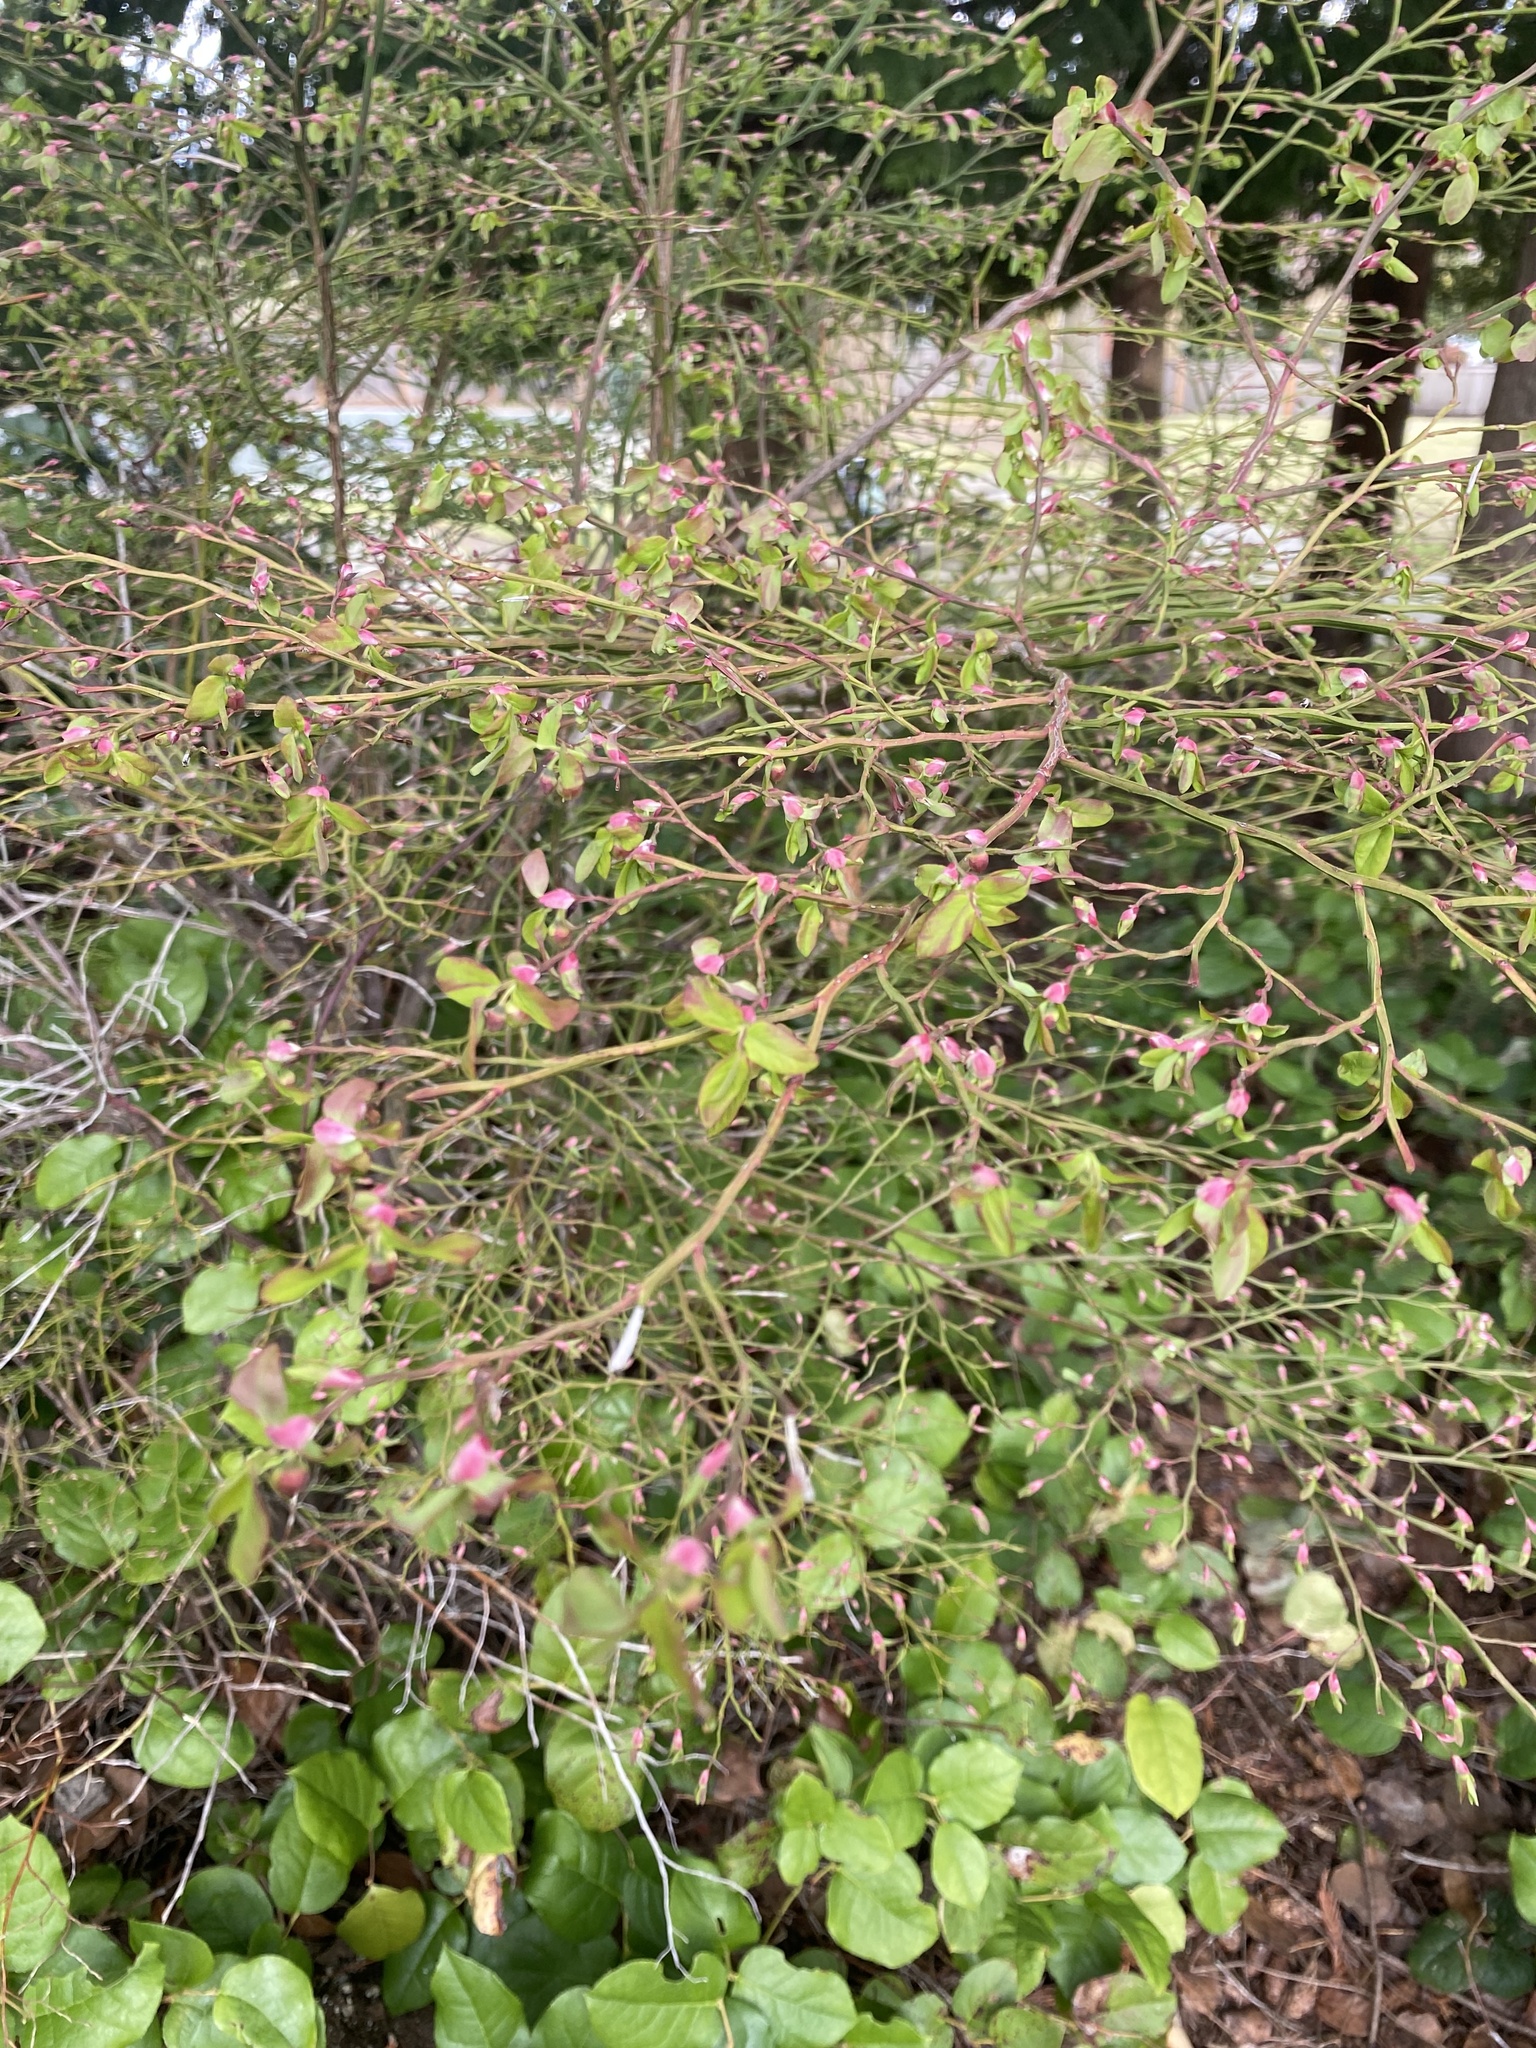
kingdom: Plantae
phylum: Tracheophyta
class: Magnoliopsida
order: Ericales
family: Ericaceae
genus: Vaccinium
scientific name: Vaccinium parvifolium
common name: Red-huckleberry
